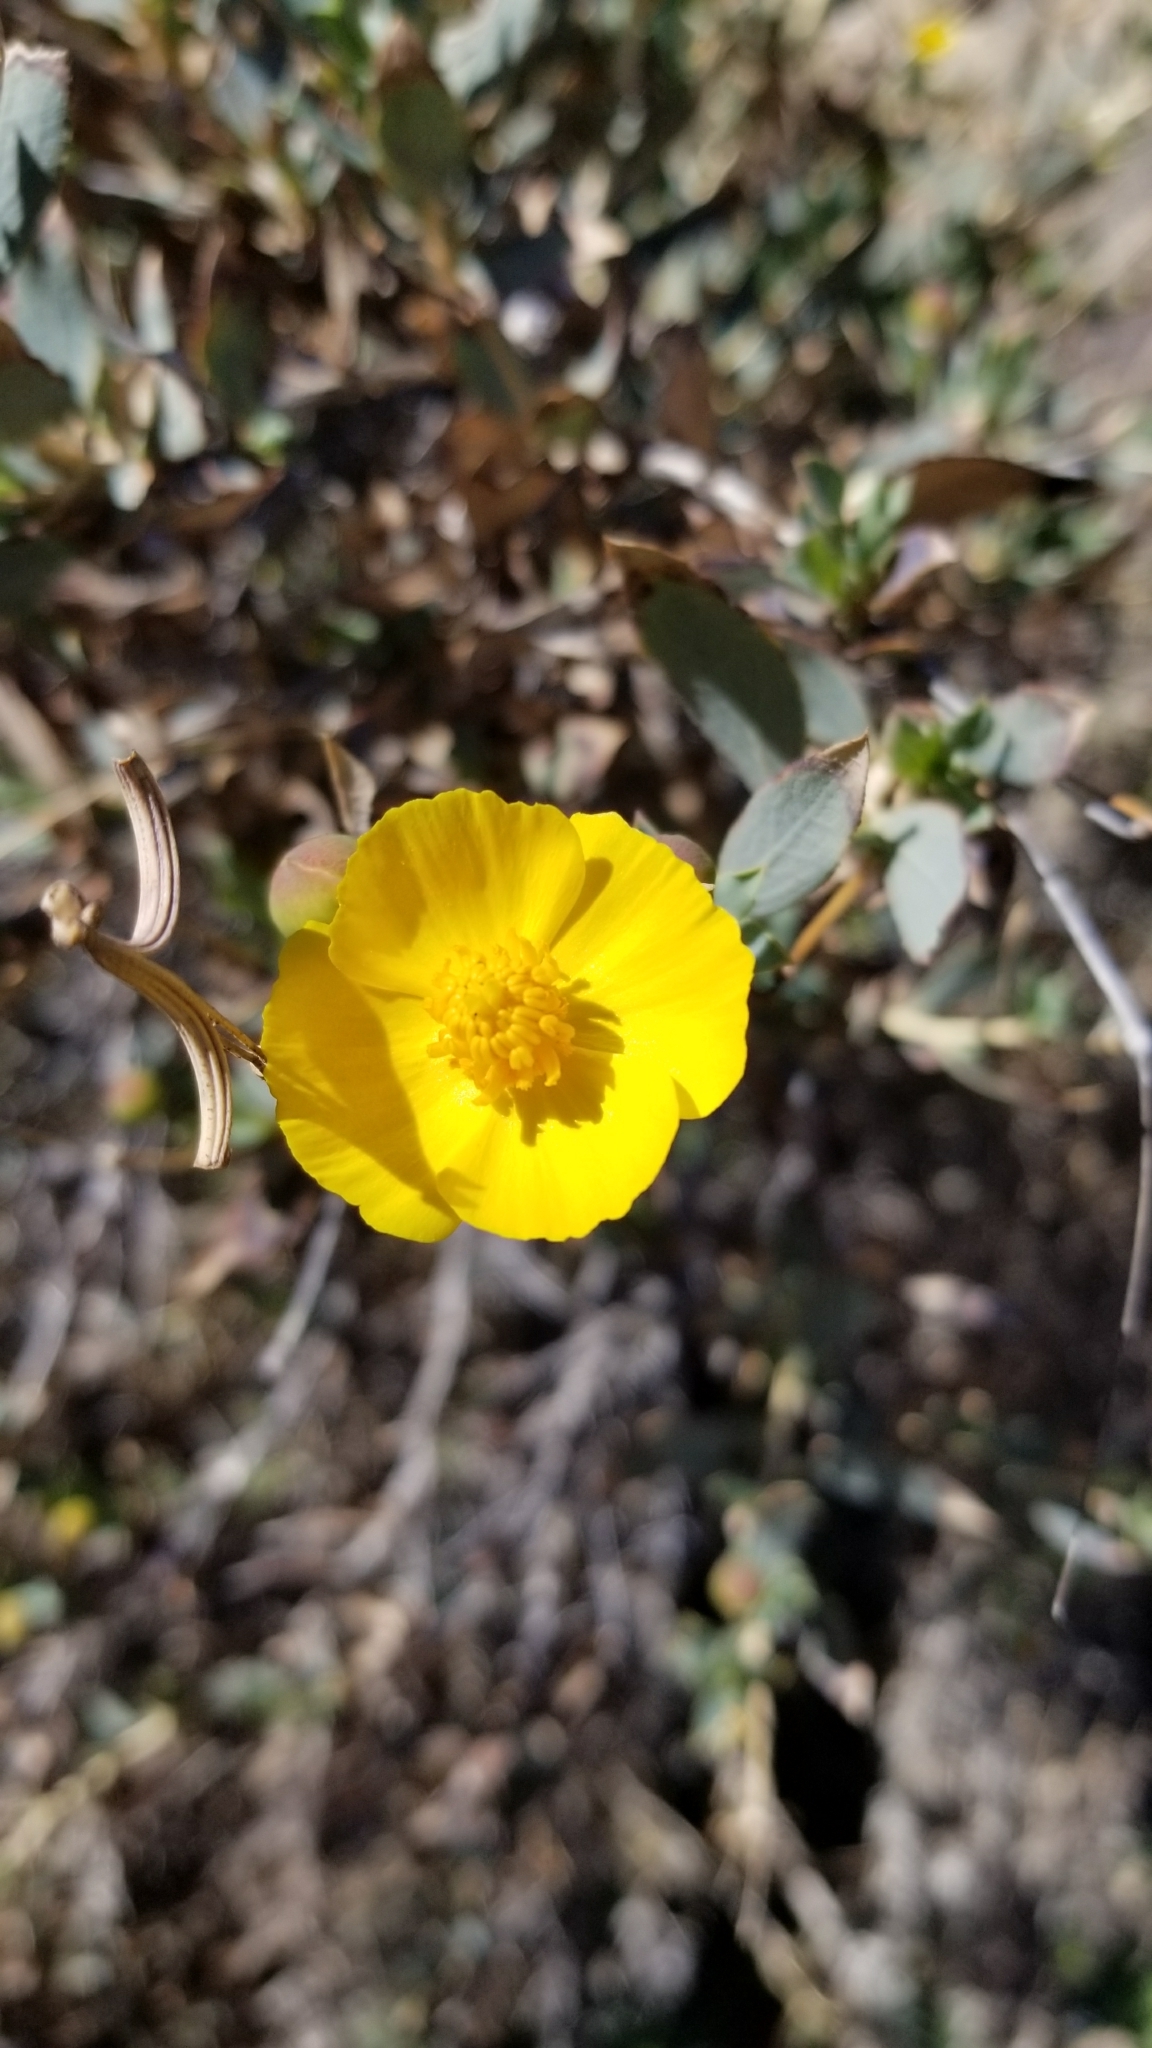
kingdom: Plantae
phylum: Tracheophyta
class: Magnoliopsida
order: Ranunculales
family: Papaveraceae
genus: Dendromecon
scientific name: Dendromecon rigida
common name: Tree poppy
